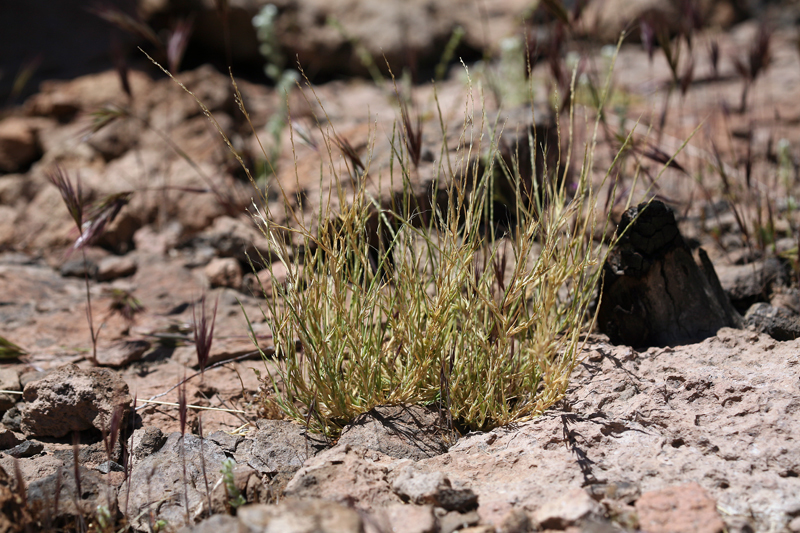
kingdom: Plantae
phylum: Tracheophyta
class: Liliopsida
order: Poales
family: Poaceae
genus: Muhlenbergia
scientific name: Muhlenbergia appressa
